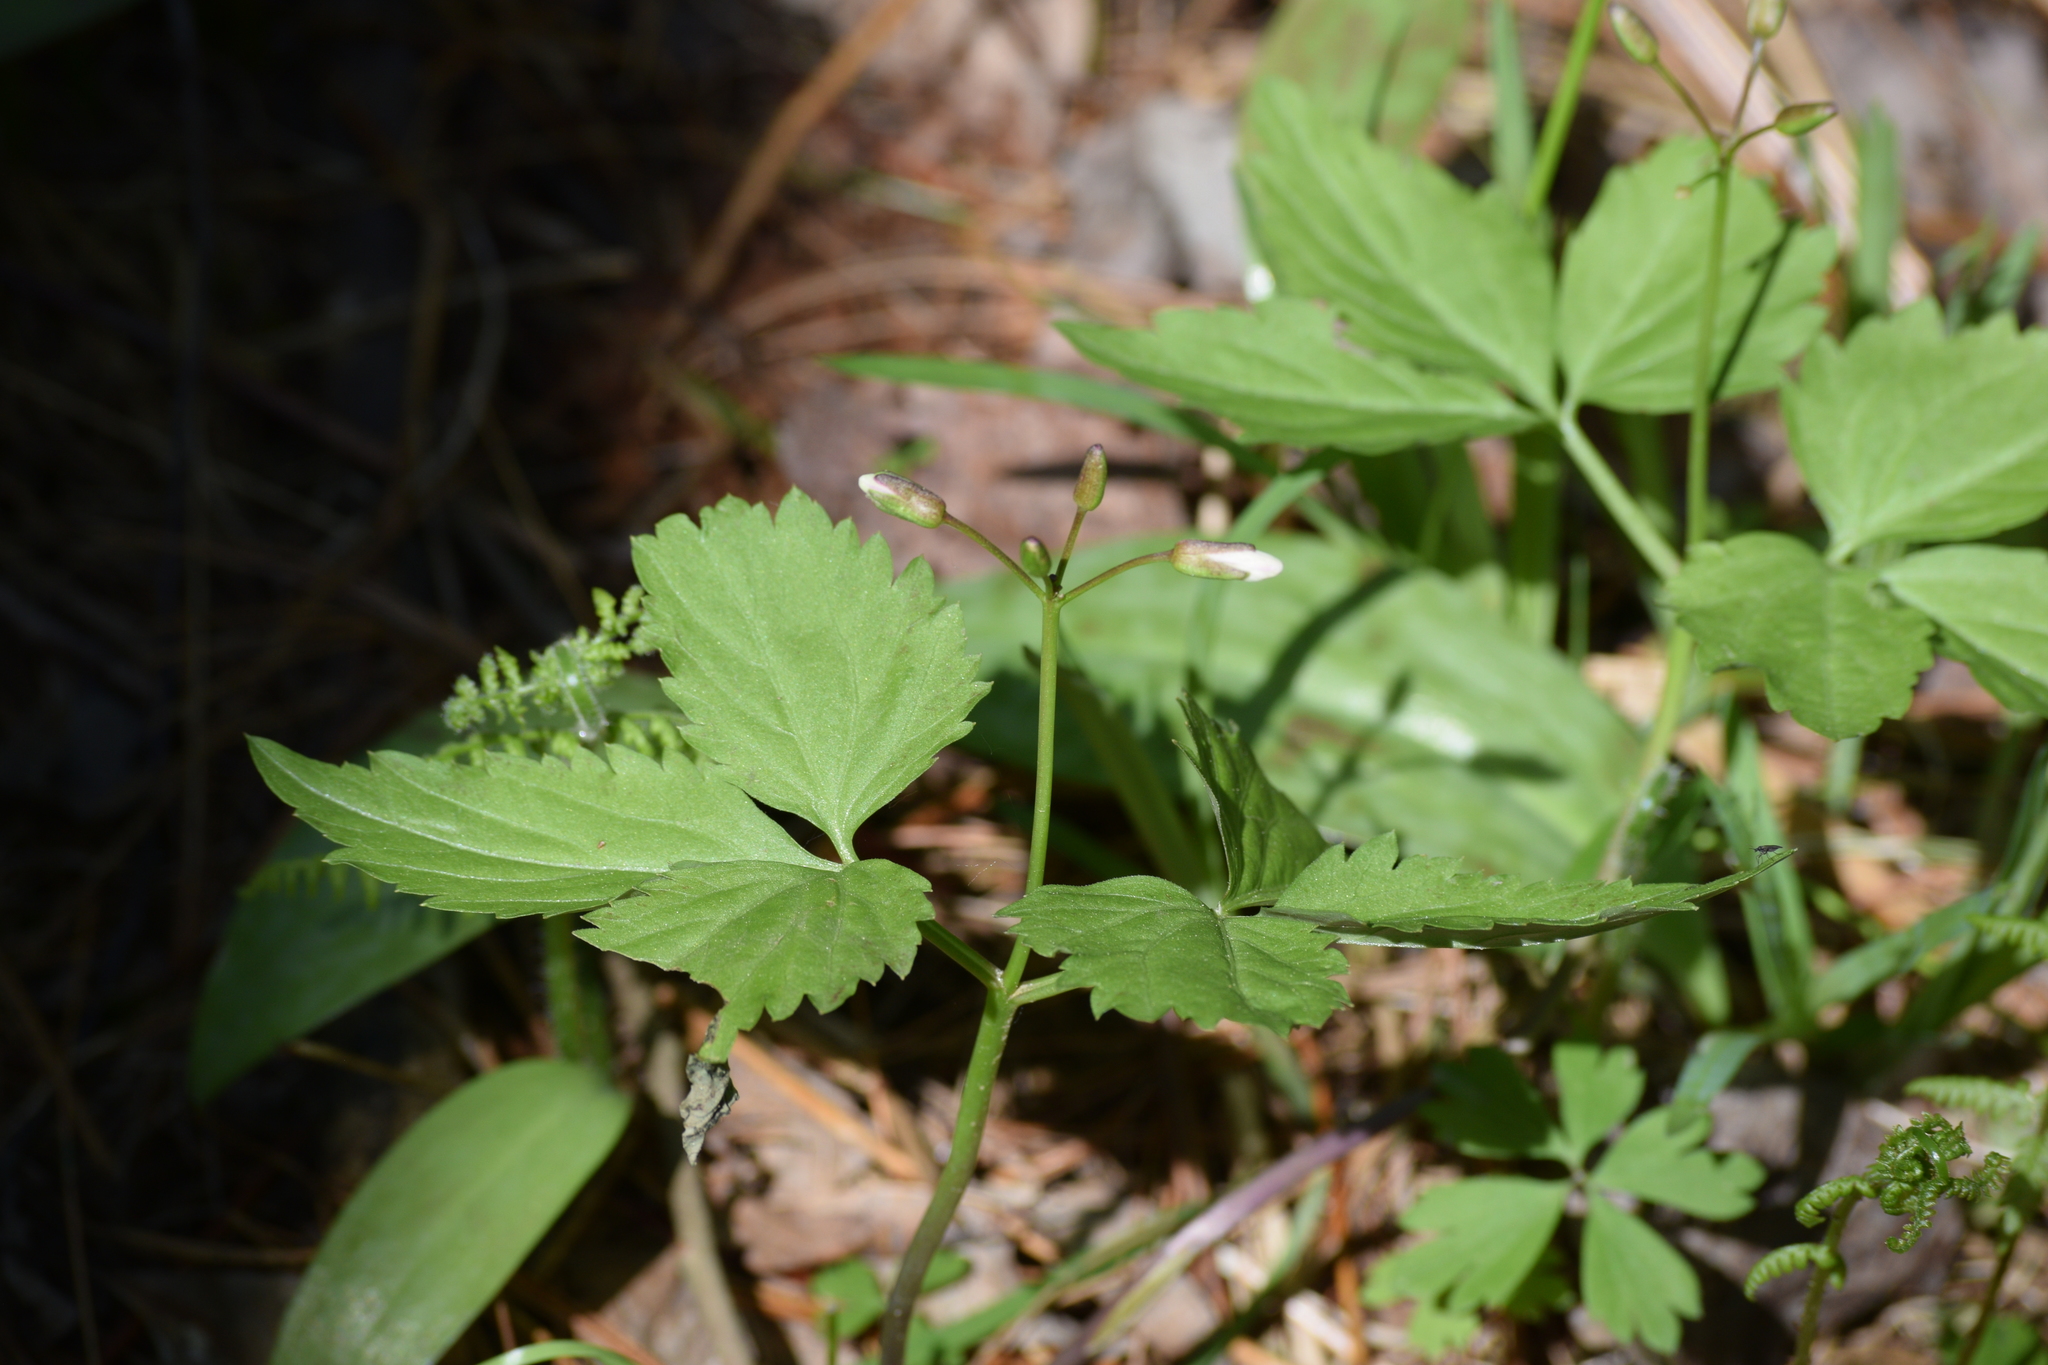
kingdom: Plantae
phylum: Tracheophyta
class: Magnoliopsida
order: Brassicales
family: Brassicaceae
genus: Cardamine
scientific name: Cardamine diphylla
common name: Broad-leaved toothwort
